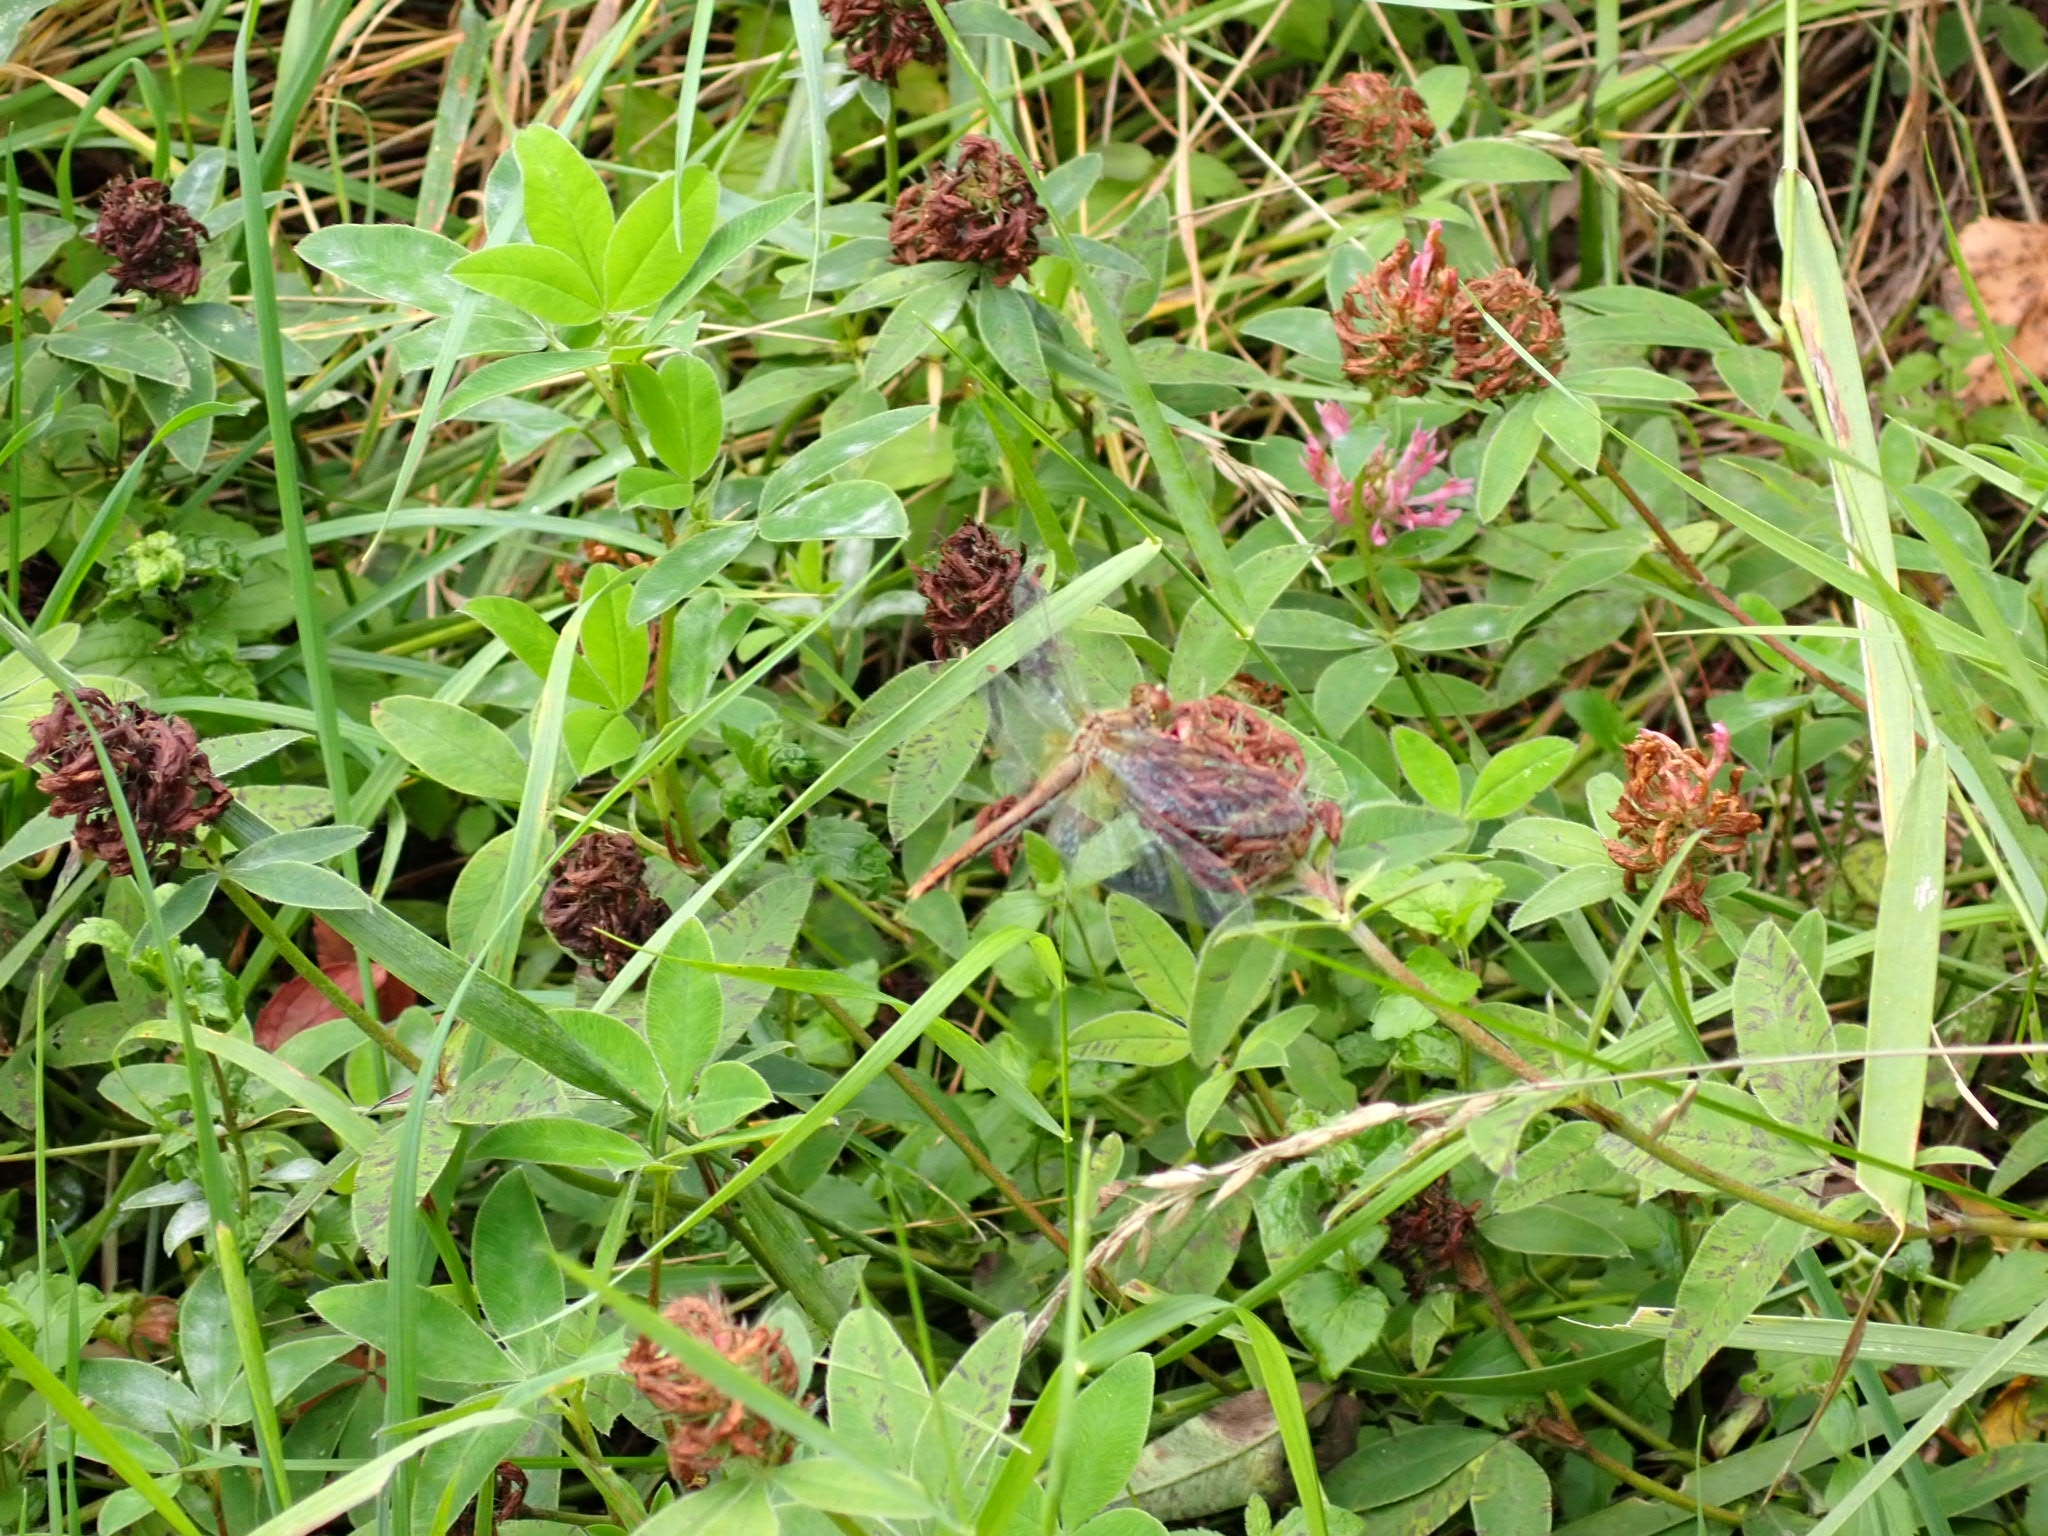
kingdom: Animalia
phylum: Arthropoda
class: Insecta
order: Odonata
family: Libellulidae
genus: Sympetrum
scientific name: Sympetrum flaveolum
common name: Yellow-winged darter
